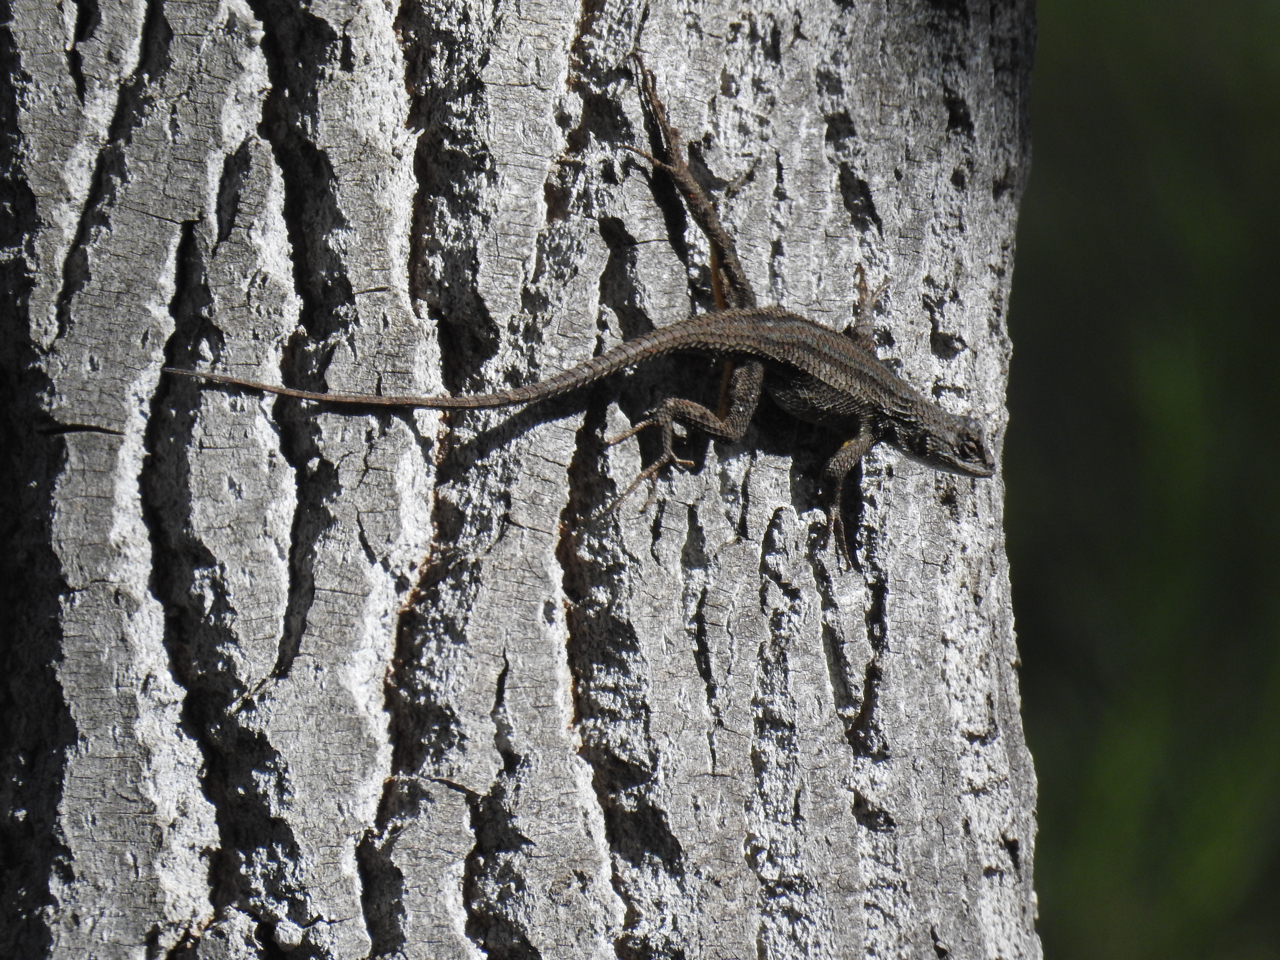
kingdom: Animalia
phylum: Chordata
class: Squamata
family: Phrynosomatidae
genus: Sceloporus
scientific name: Sceloporus occidentalis
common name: Western fence lizard
